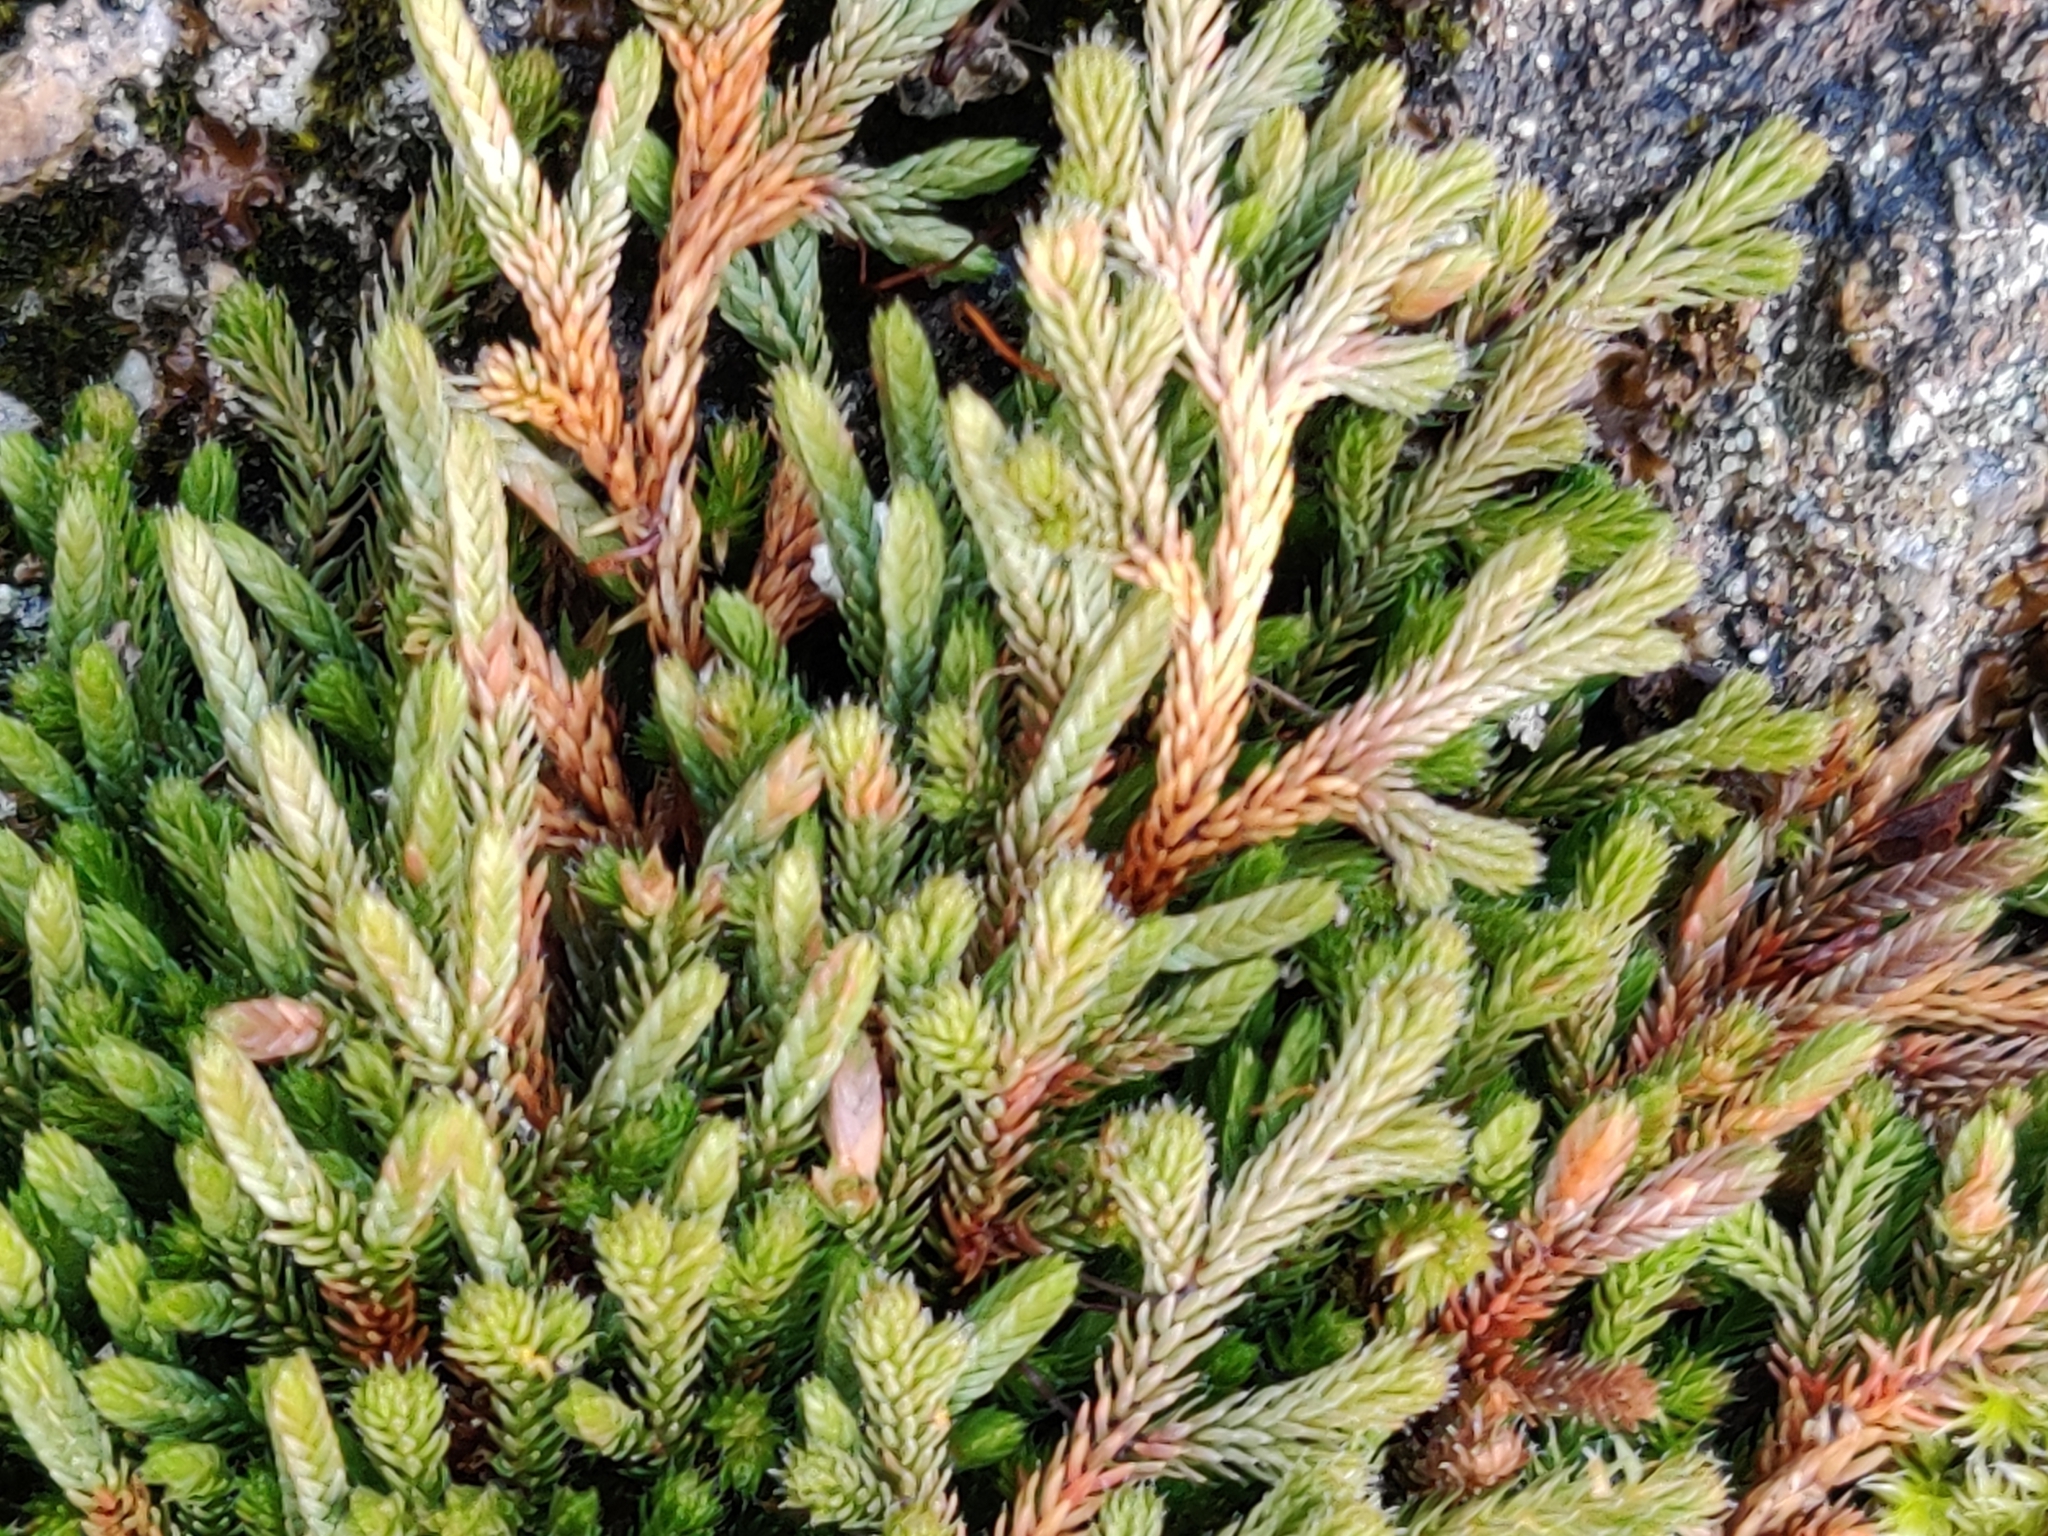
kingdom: Plantae
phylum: Tracheophyta
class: Lycopodiopsida
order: Selaginellales
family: Selaginellaceae
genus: Selaginella
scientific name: Selaginella wallacei
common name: Wallace's selaginella
